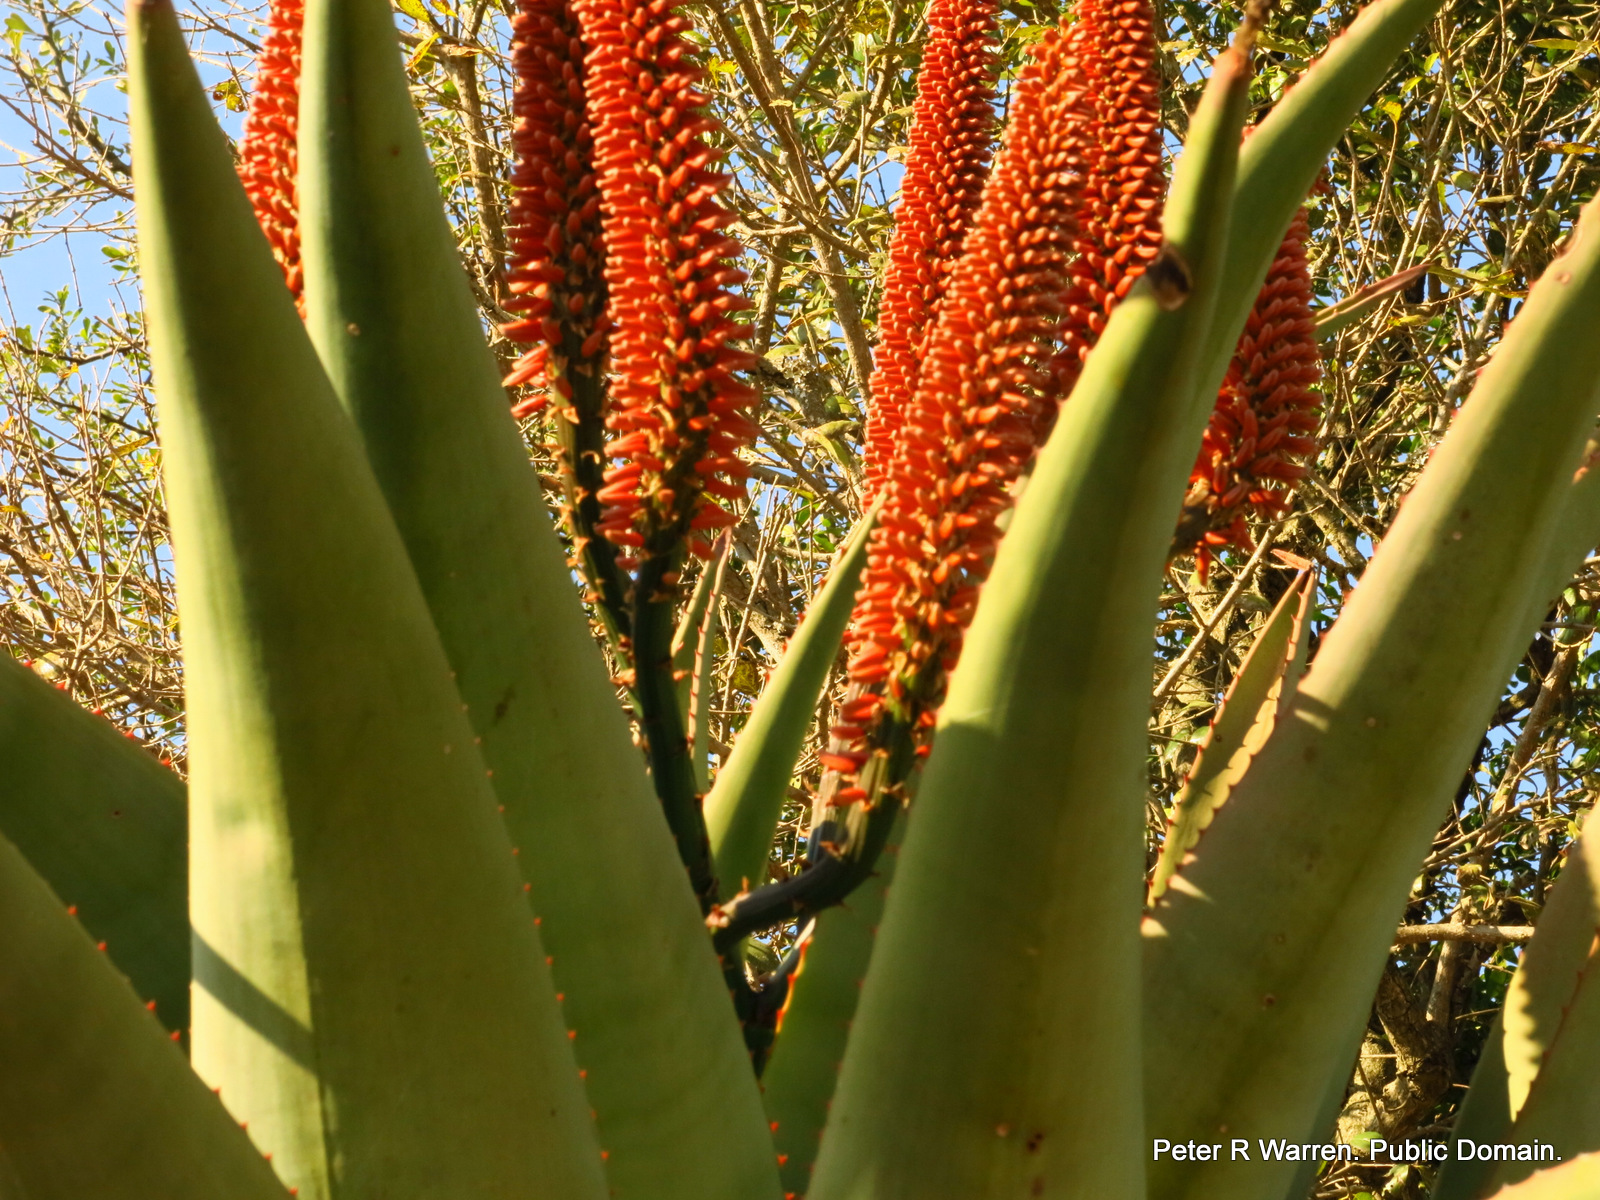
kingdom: Plantae
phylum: Tracheophyta
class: Liliopsida
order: Asparagales
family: Asphodelaceae
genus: Aloe
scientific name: Aloe ferox
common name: Bitter aloe
